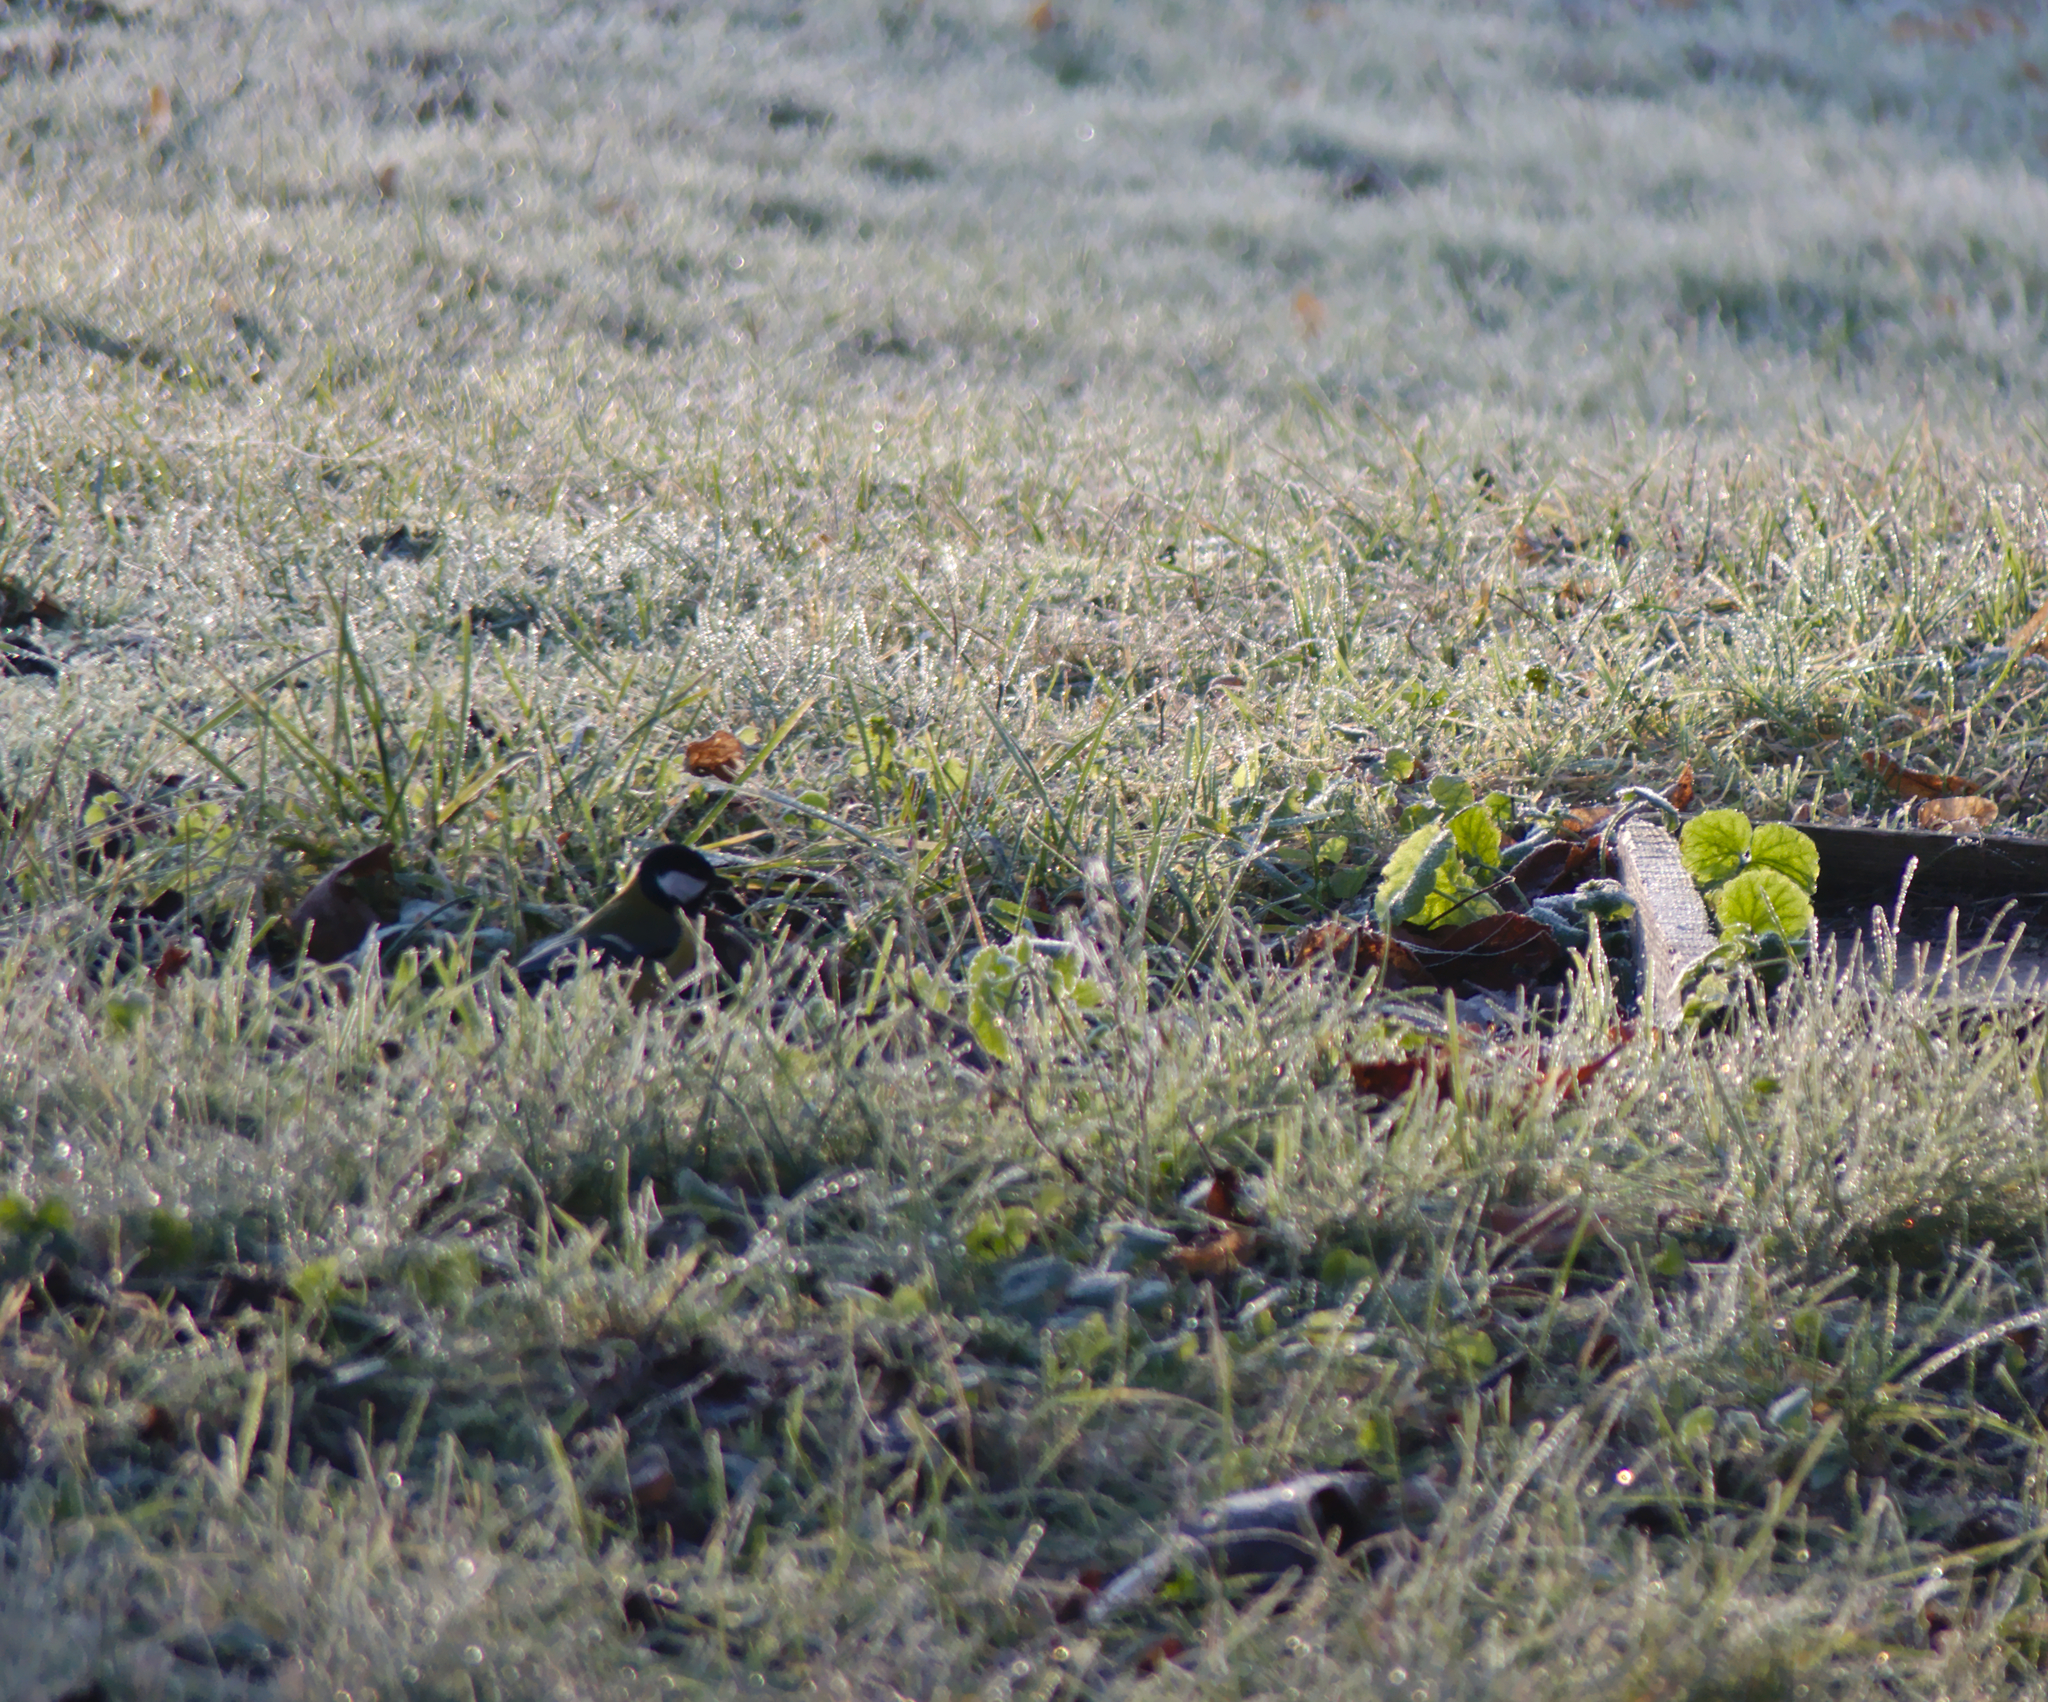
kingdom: Animalia
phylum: Chordata
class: Aves
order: Passeriformes
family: Paridae
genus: Parus
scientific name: Parus major
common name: Great tit
